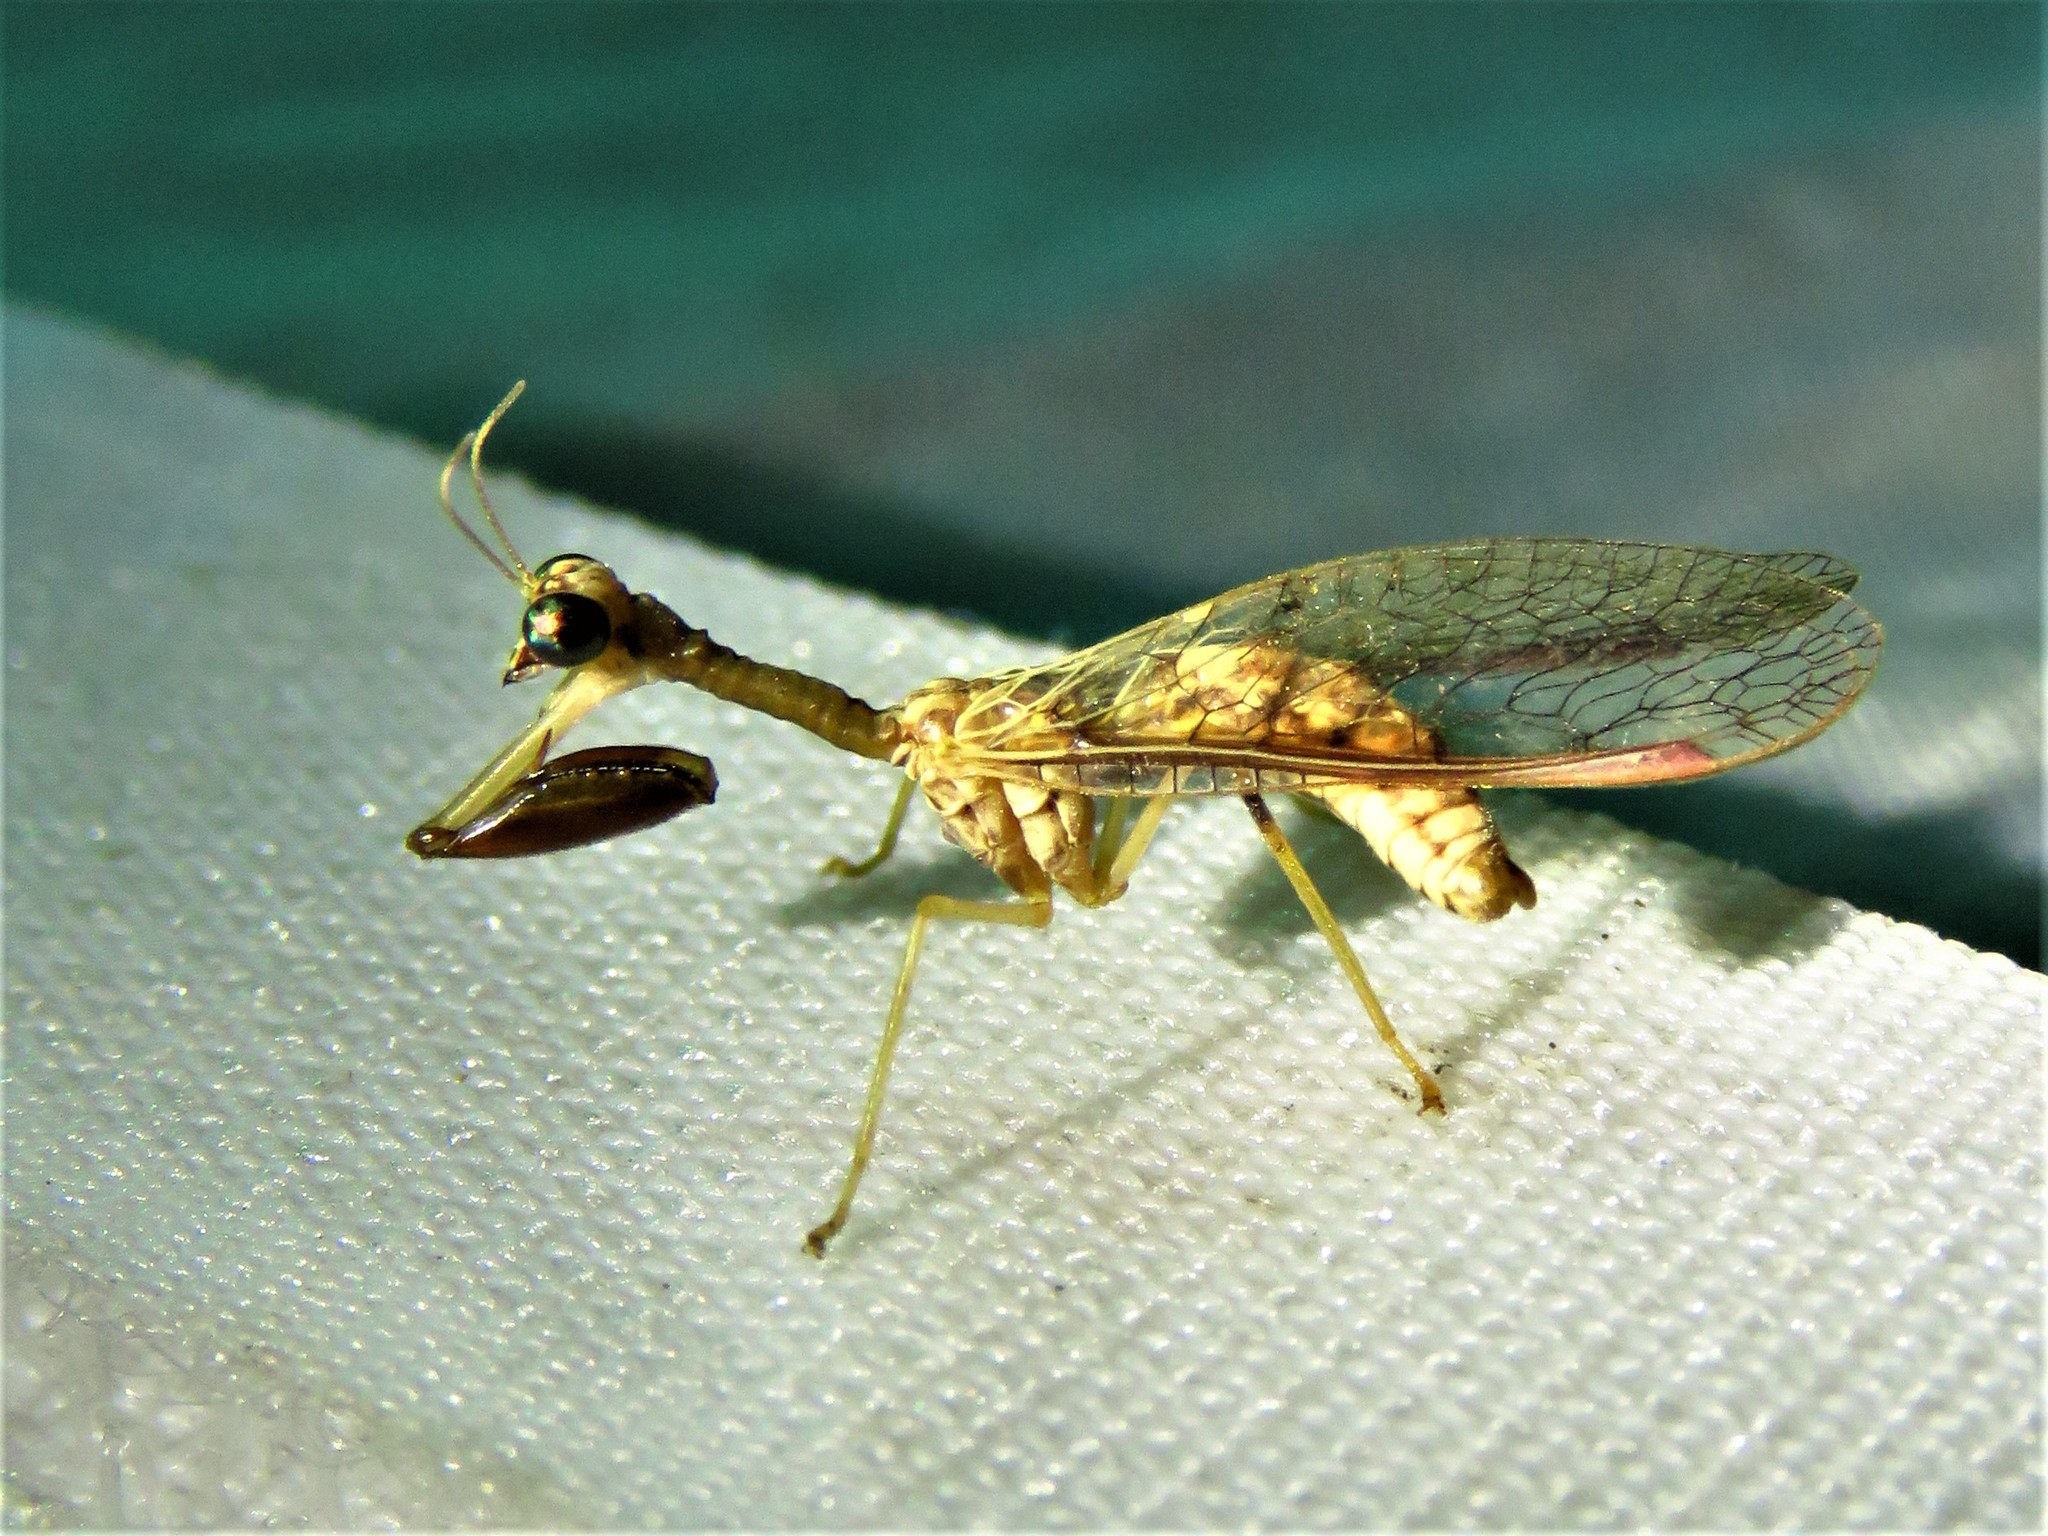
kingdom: Animalia
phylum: Arthropoda
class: Insecta
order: Neuroptera
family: Mantispidae
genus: Dicromantispa
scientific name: Dicromantispa sayi
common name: Say's mantidfly
